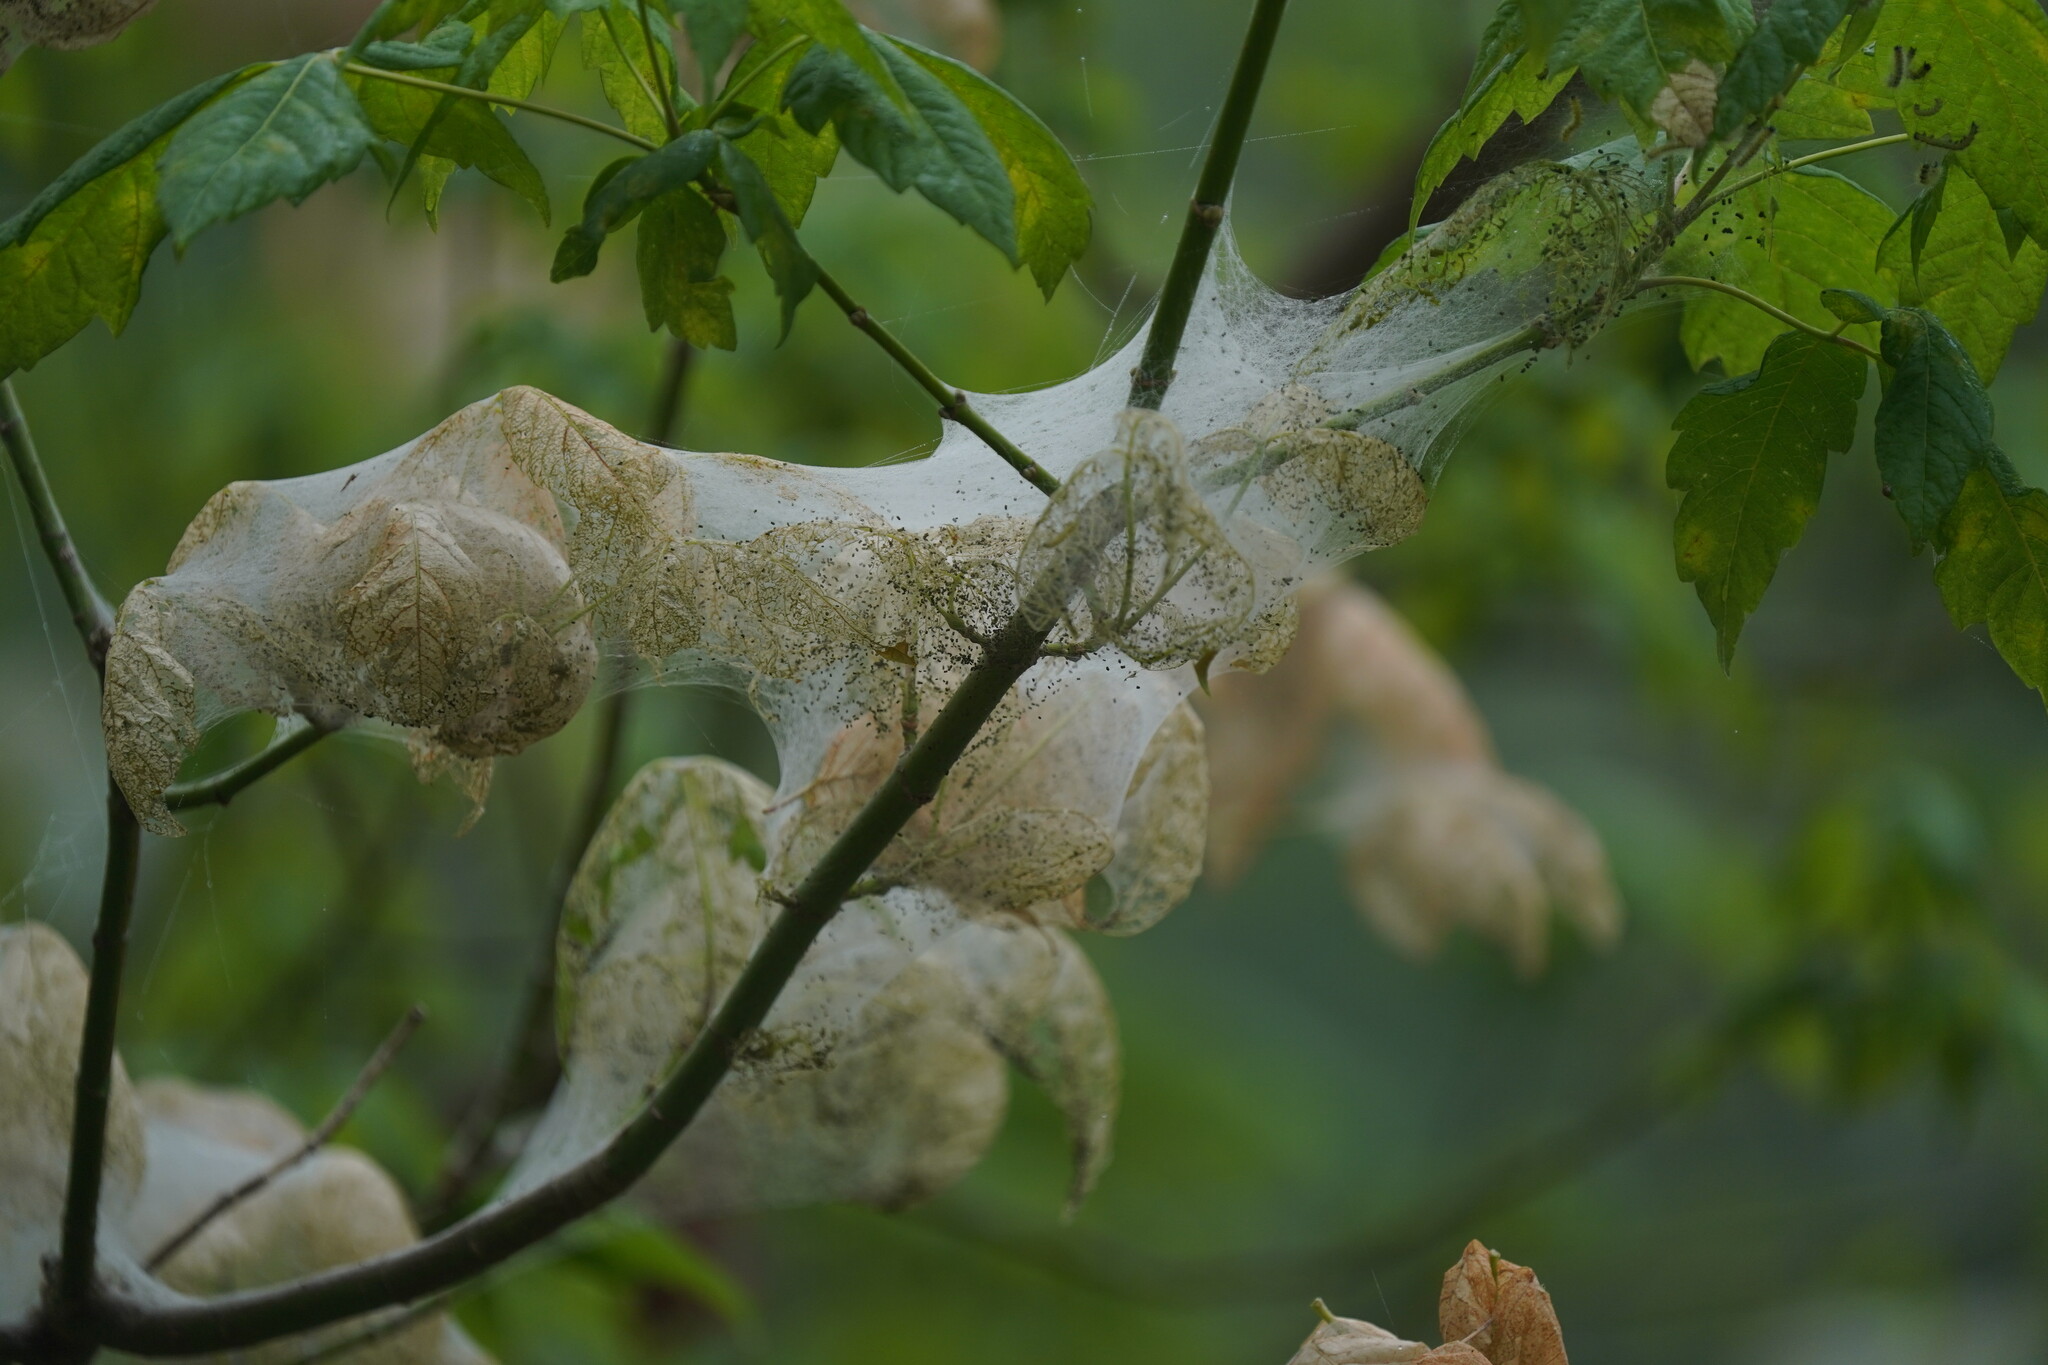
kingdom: Animalia
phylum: Arthropoda
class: Insecta
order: Lepidoptera
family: Erebidae
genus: Hyphantria
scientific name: Hyphantria cunea
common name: American white moth
